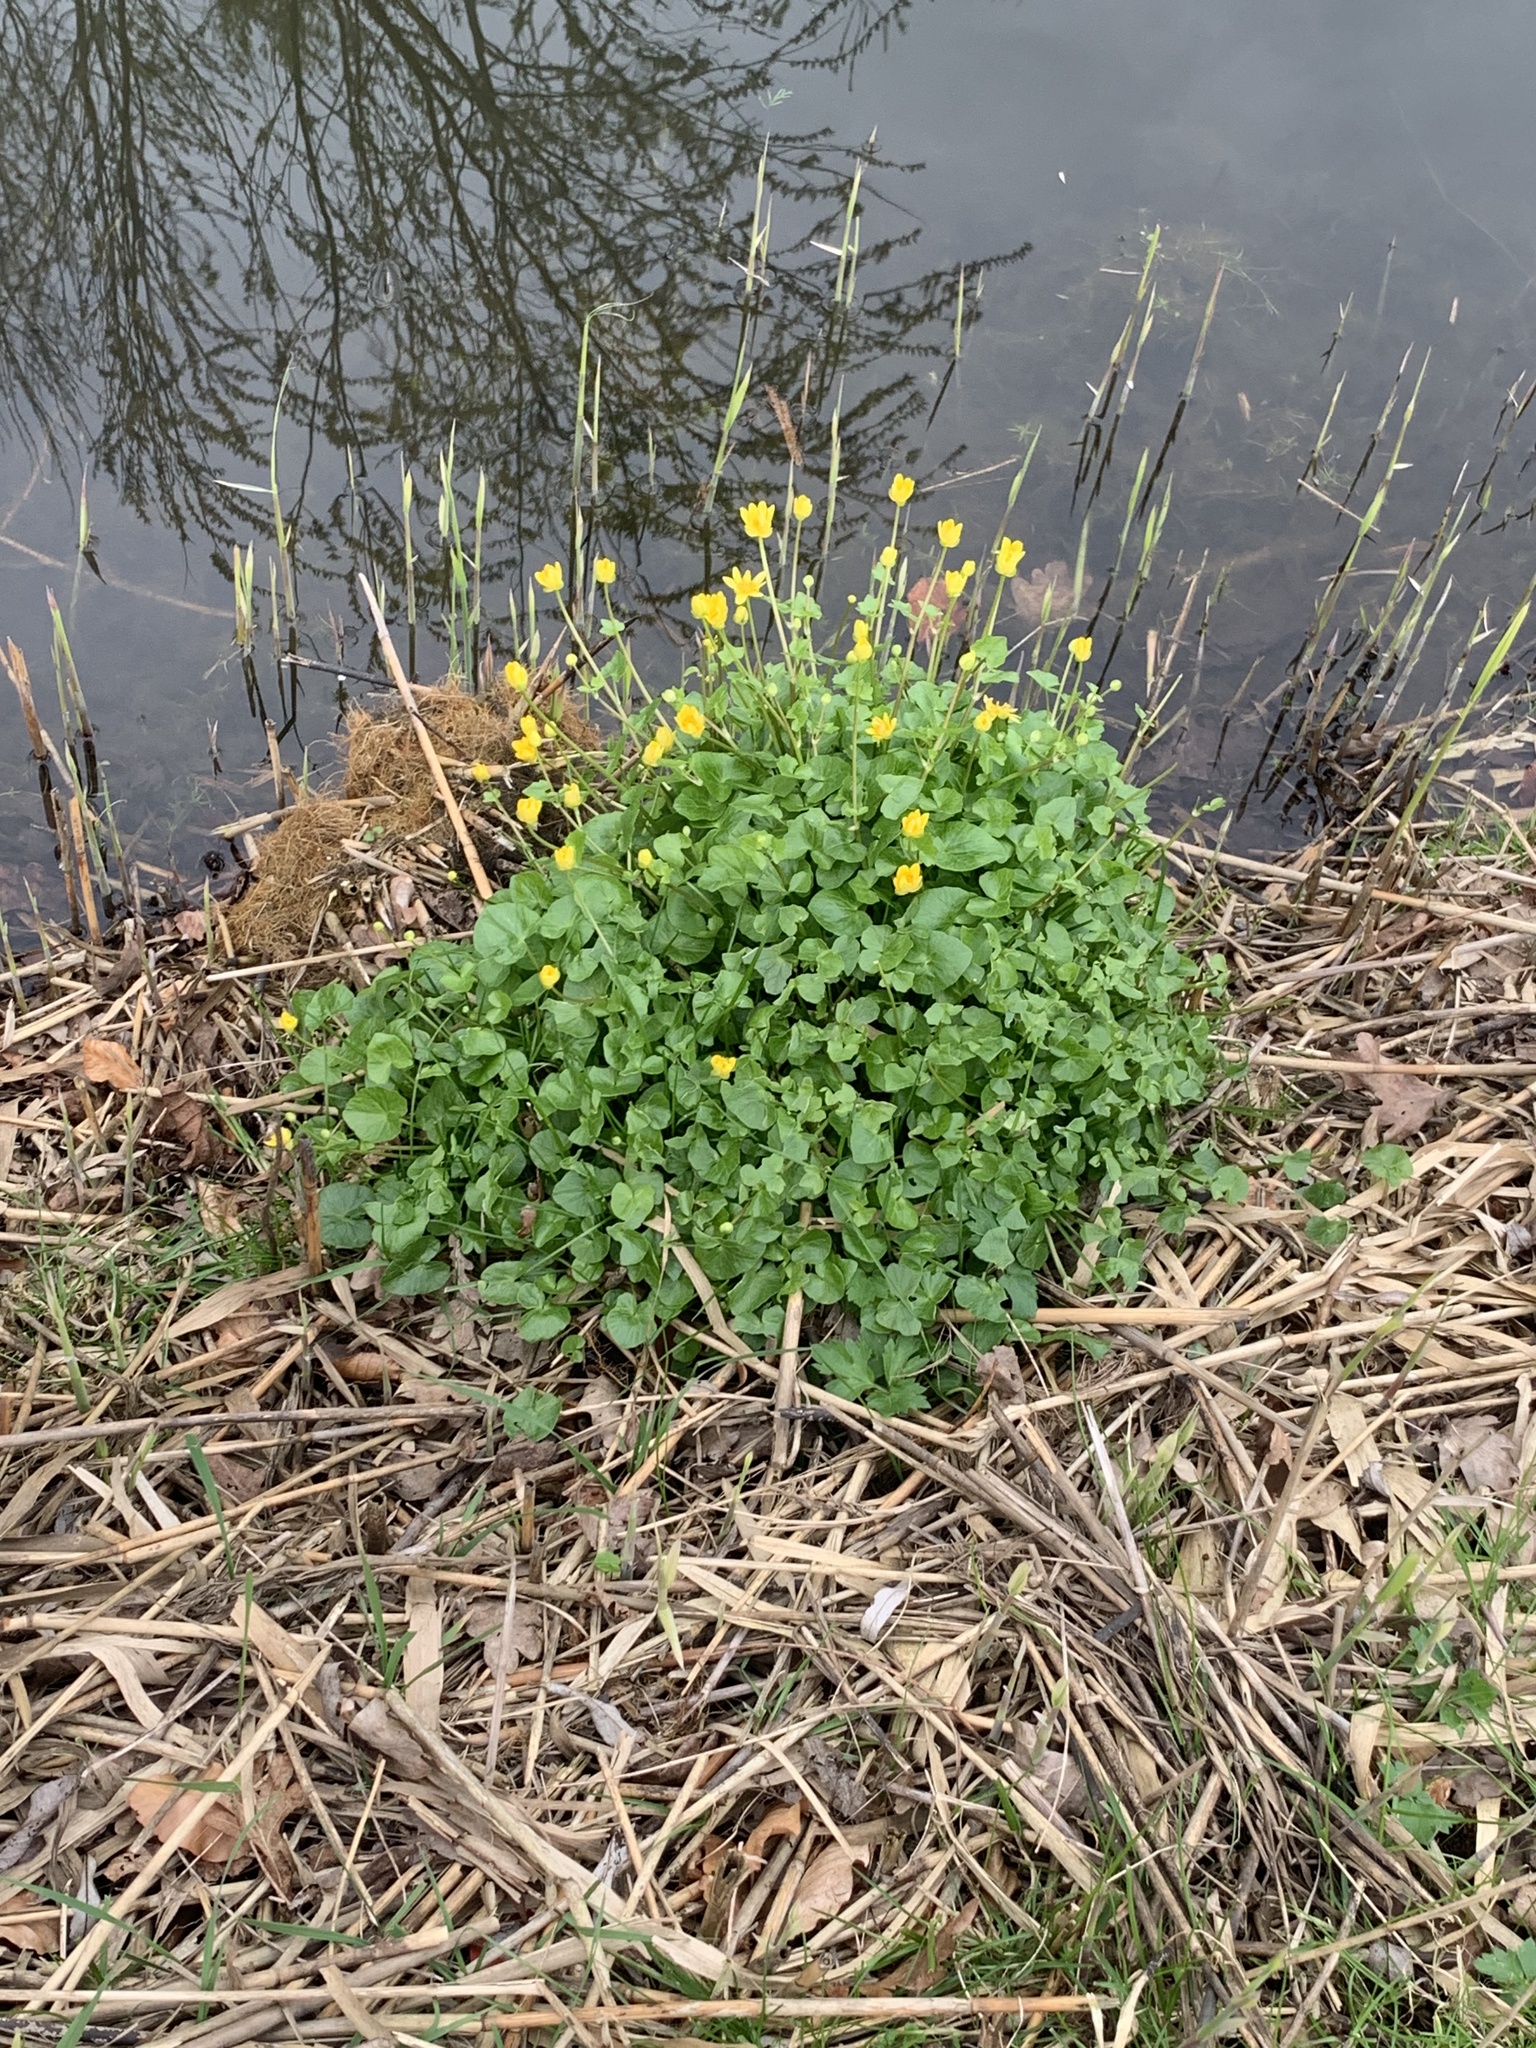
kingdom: Plantae
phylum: Tracheophyta
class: Magnoliopsida
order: Ranunculales
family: Ranunculaceae
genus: Ficaria
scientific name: Ficaria verna
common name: Lesser celandine
